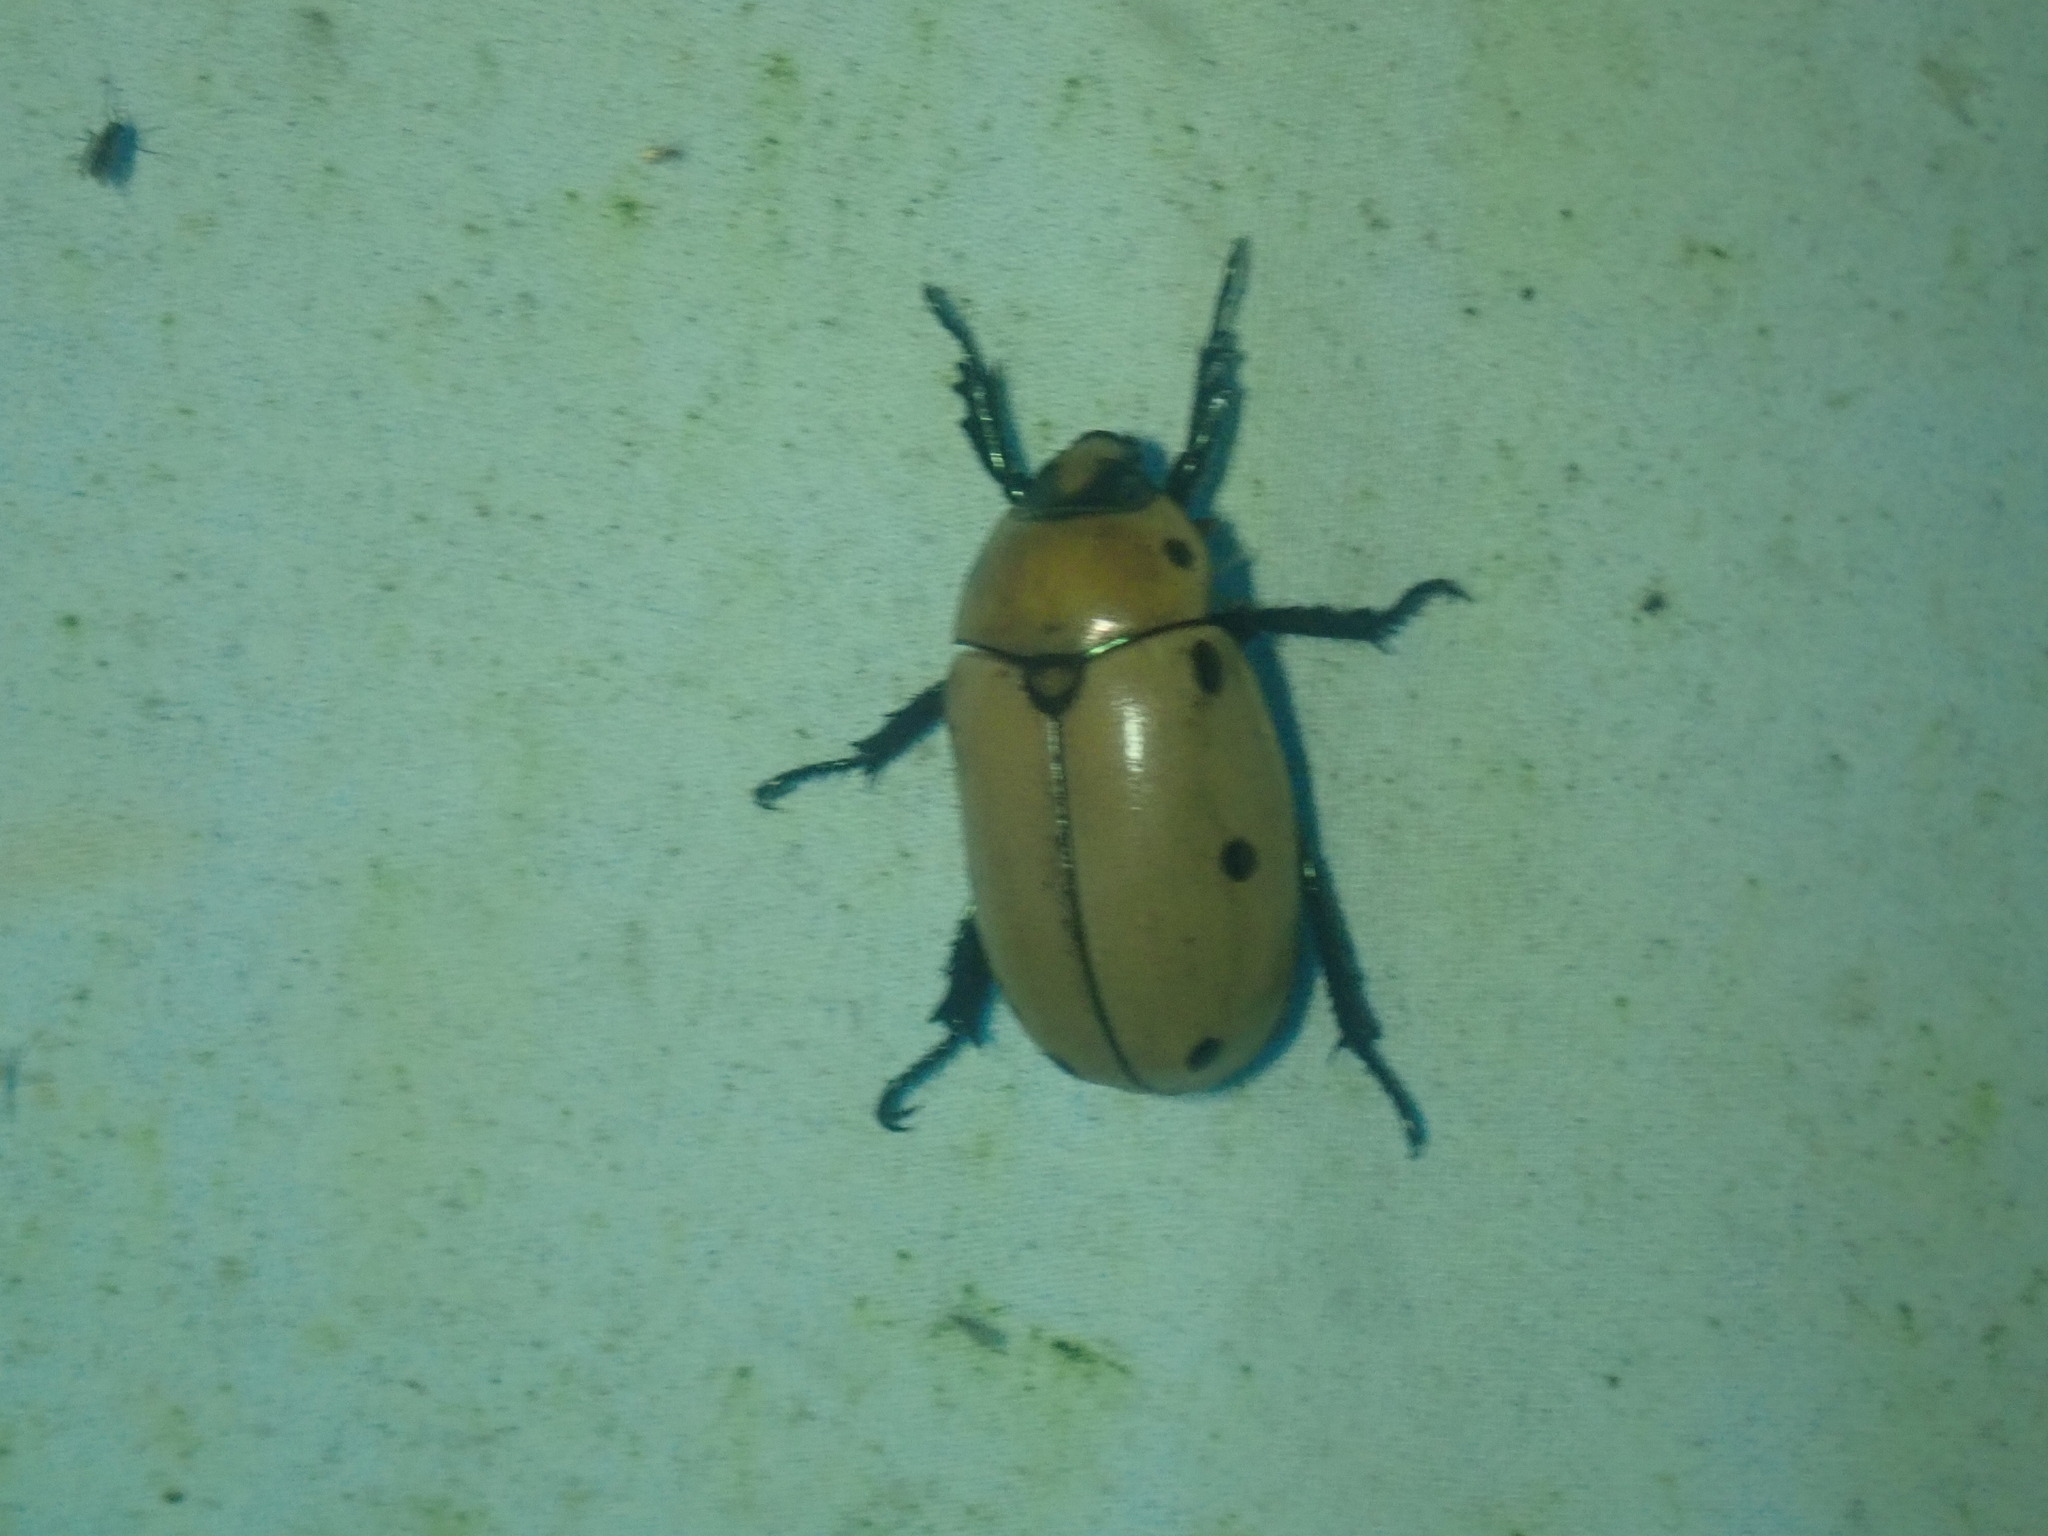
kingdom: Animalia
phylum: Arthropoda
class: Insecta
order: Coleoptera
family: Scarabaeidae
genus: Pelidnota
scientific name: Pelidnota punctata
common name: Grapevine beetle
